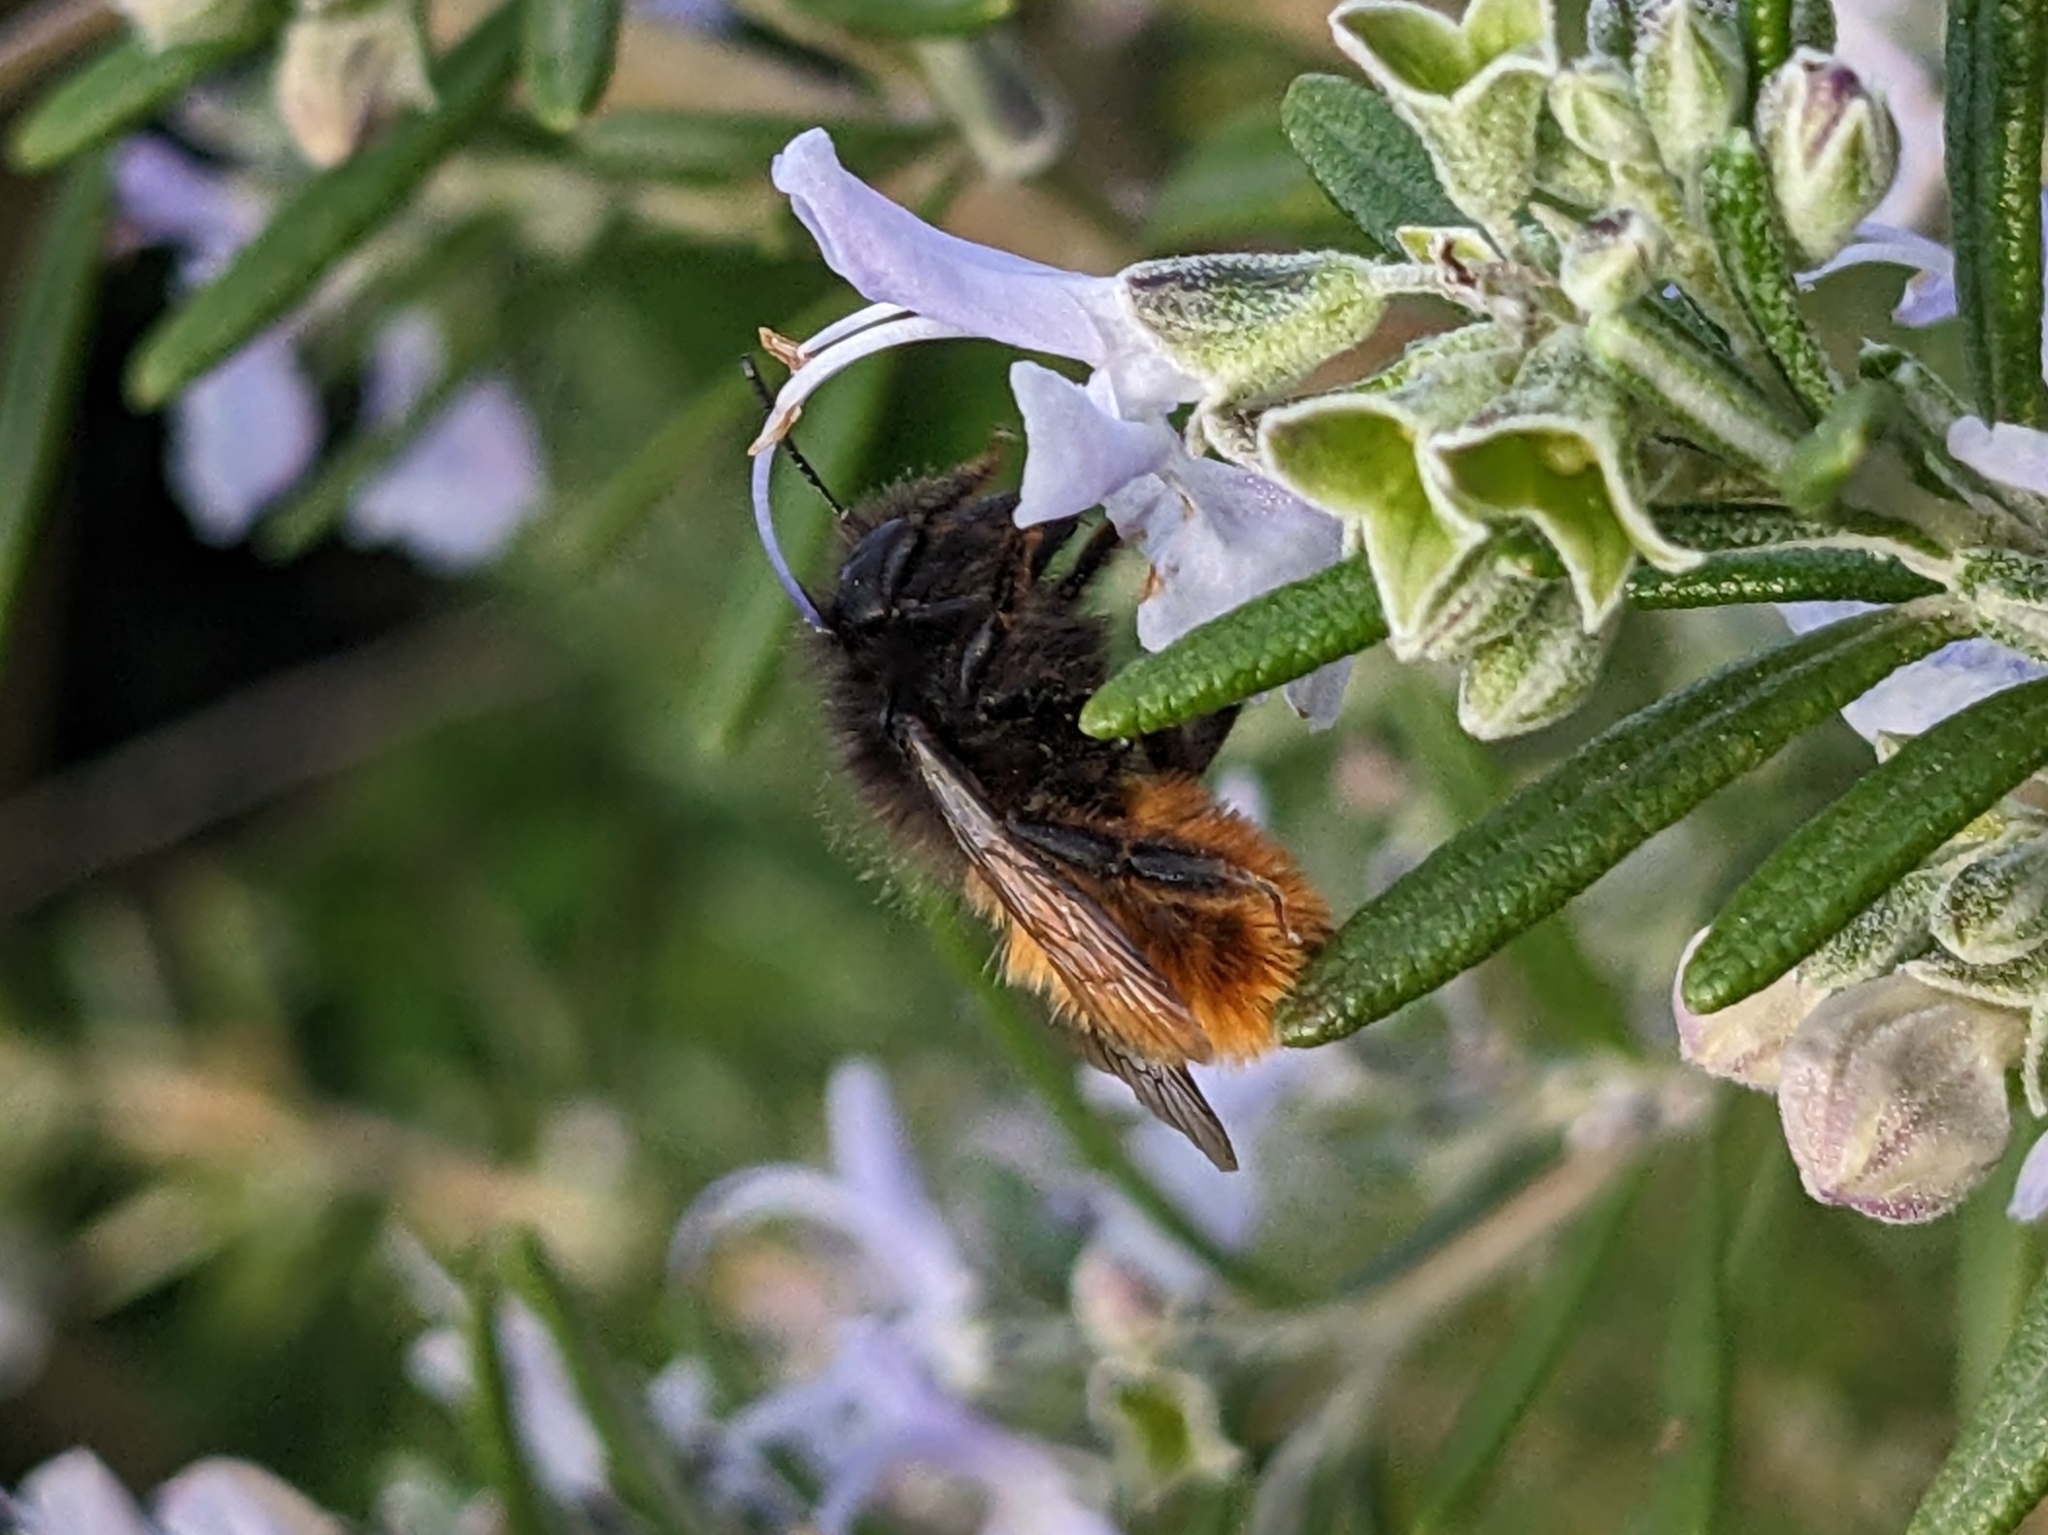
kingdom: Animalia
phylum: Arthropoda
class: Insecta
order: Hymenoptera
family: Megachilidae
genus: Osmia
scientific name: Osmia cornuta
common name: Mason bee
